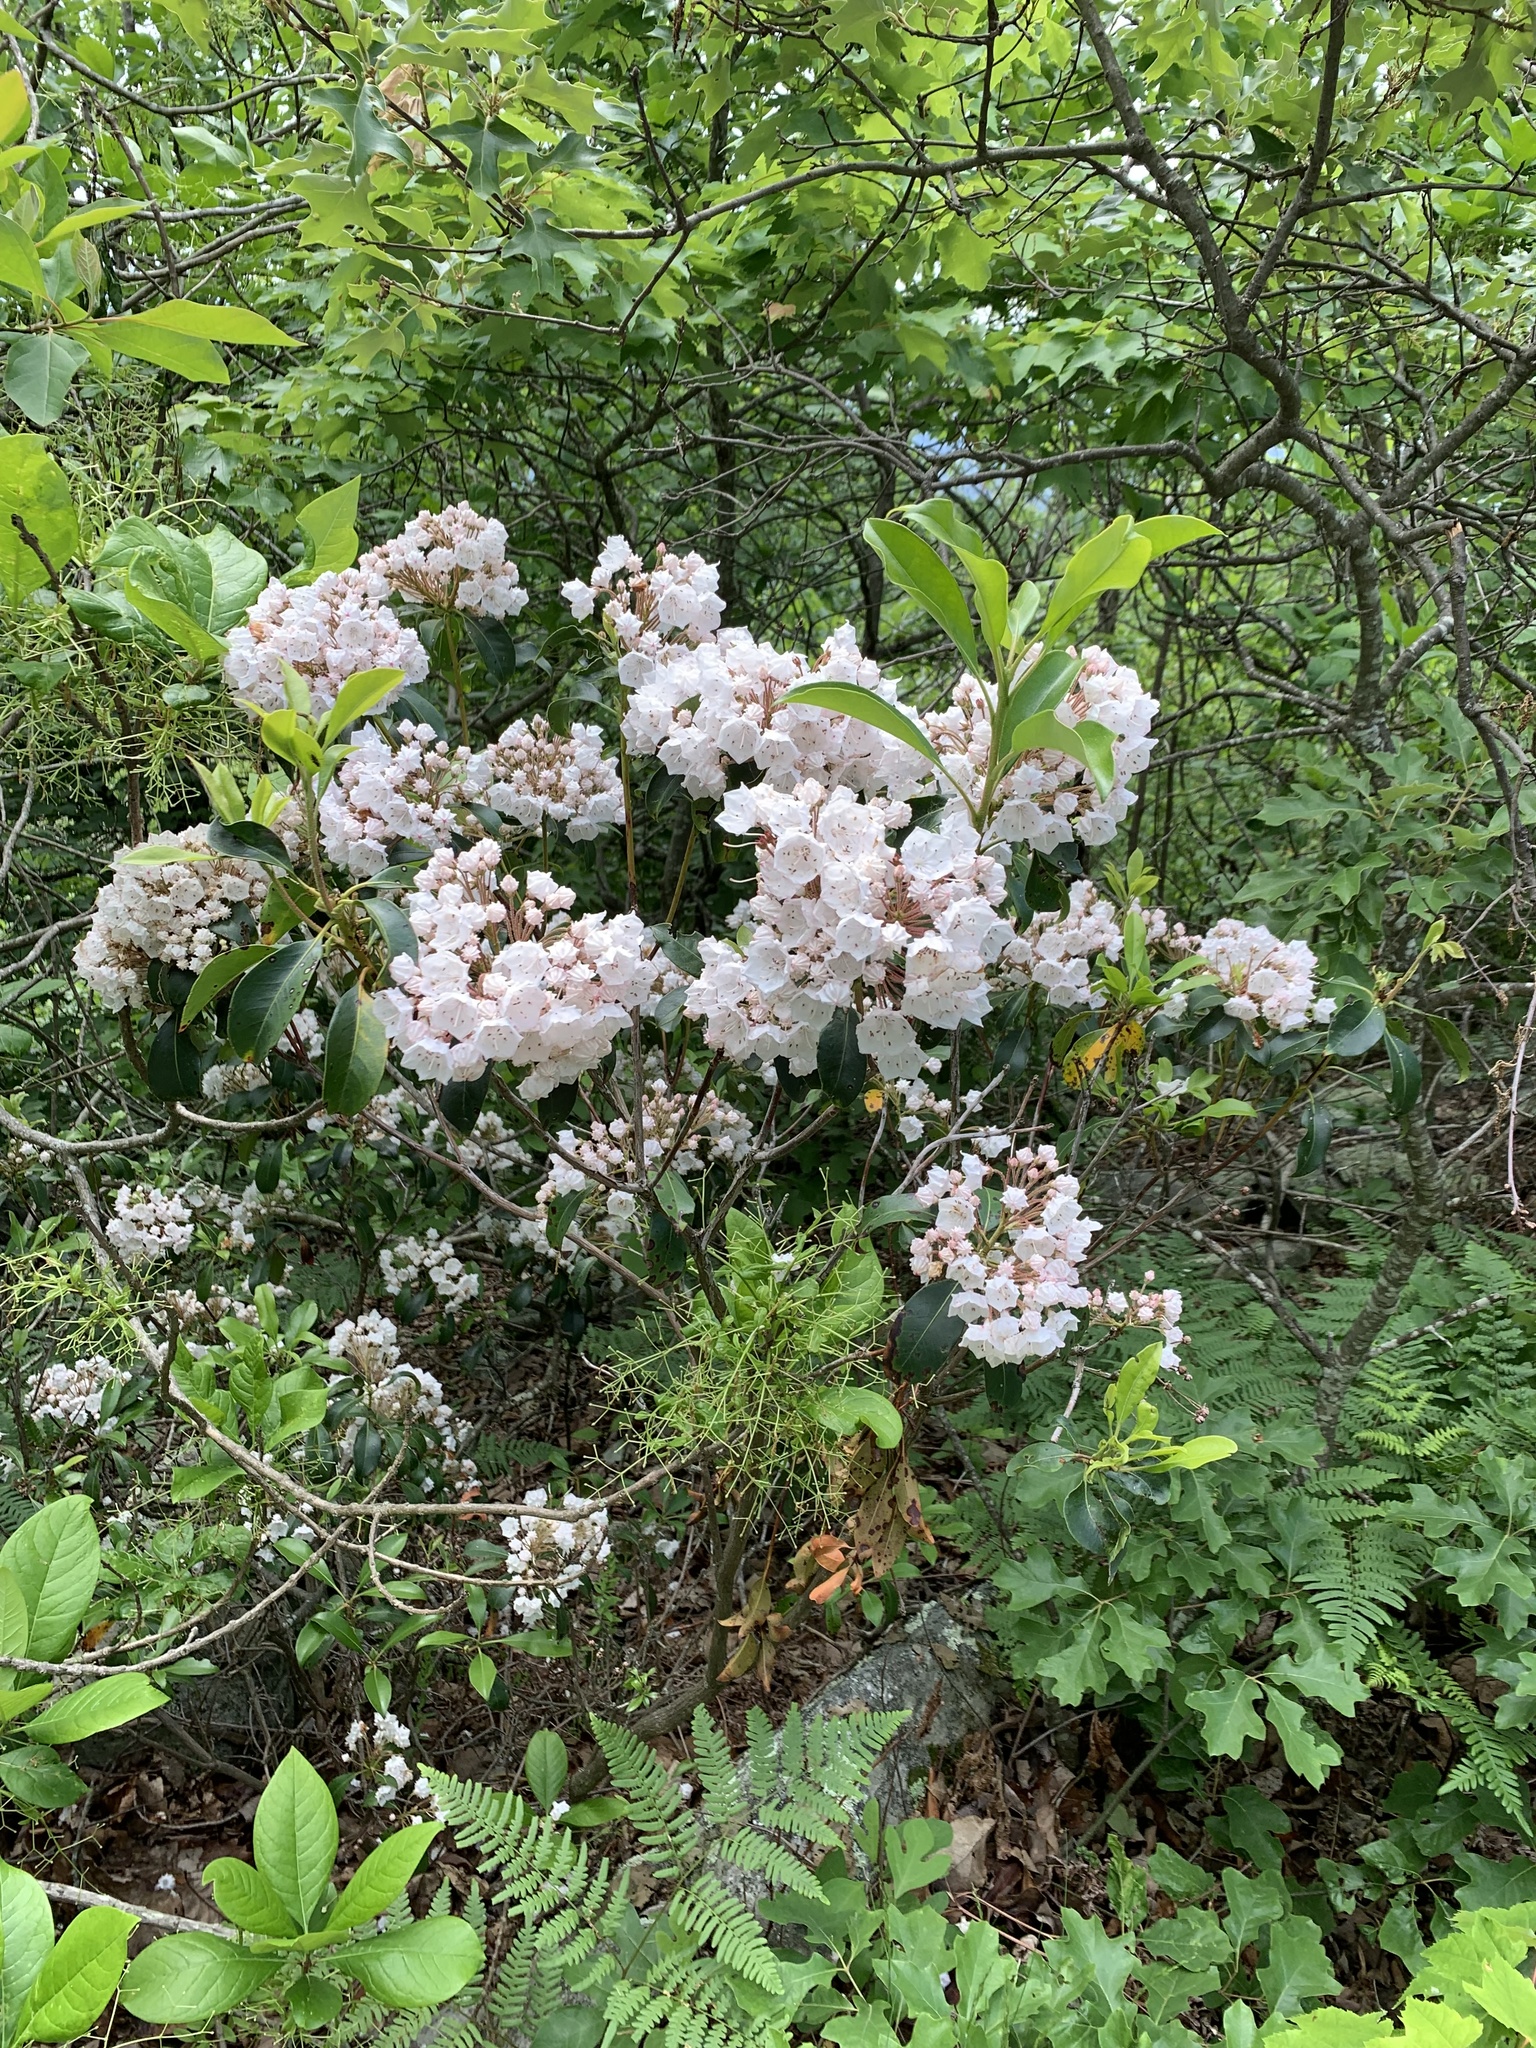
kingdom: Plantae
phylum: Tracheophyta
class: Magnoliopsida
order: Ericales
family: Ericaceae
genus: Kalmia
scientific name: Kalmia latifolia
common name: Mountain-laurel
